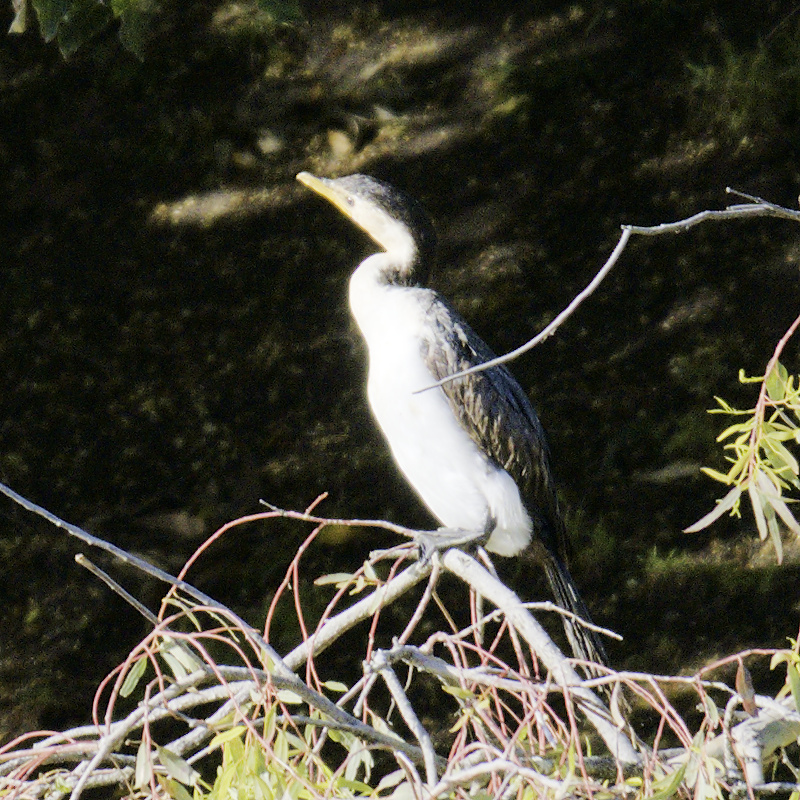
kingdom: Animalia
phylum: Chordata
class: Aves
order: Suliformes
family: Phalacrocoracidae
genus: Microcarbo
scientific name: Microcarbo melanoleucos
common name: Little pied cormorant
